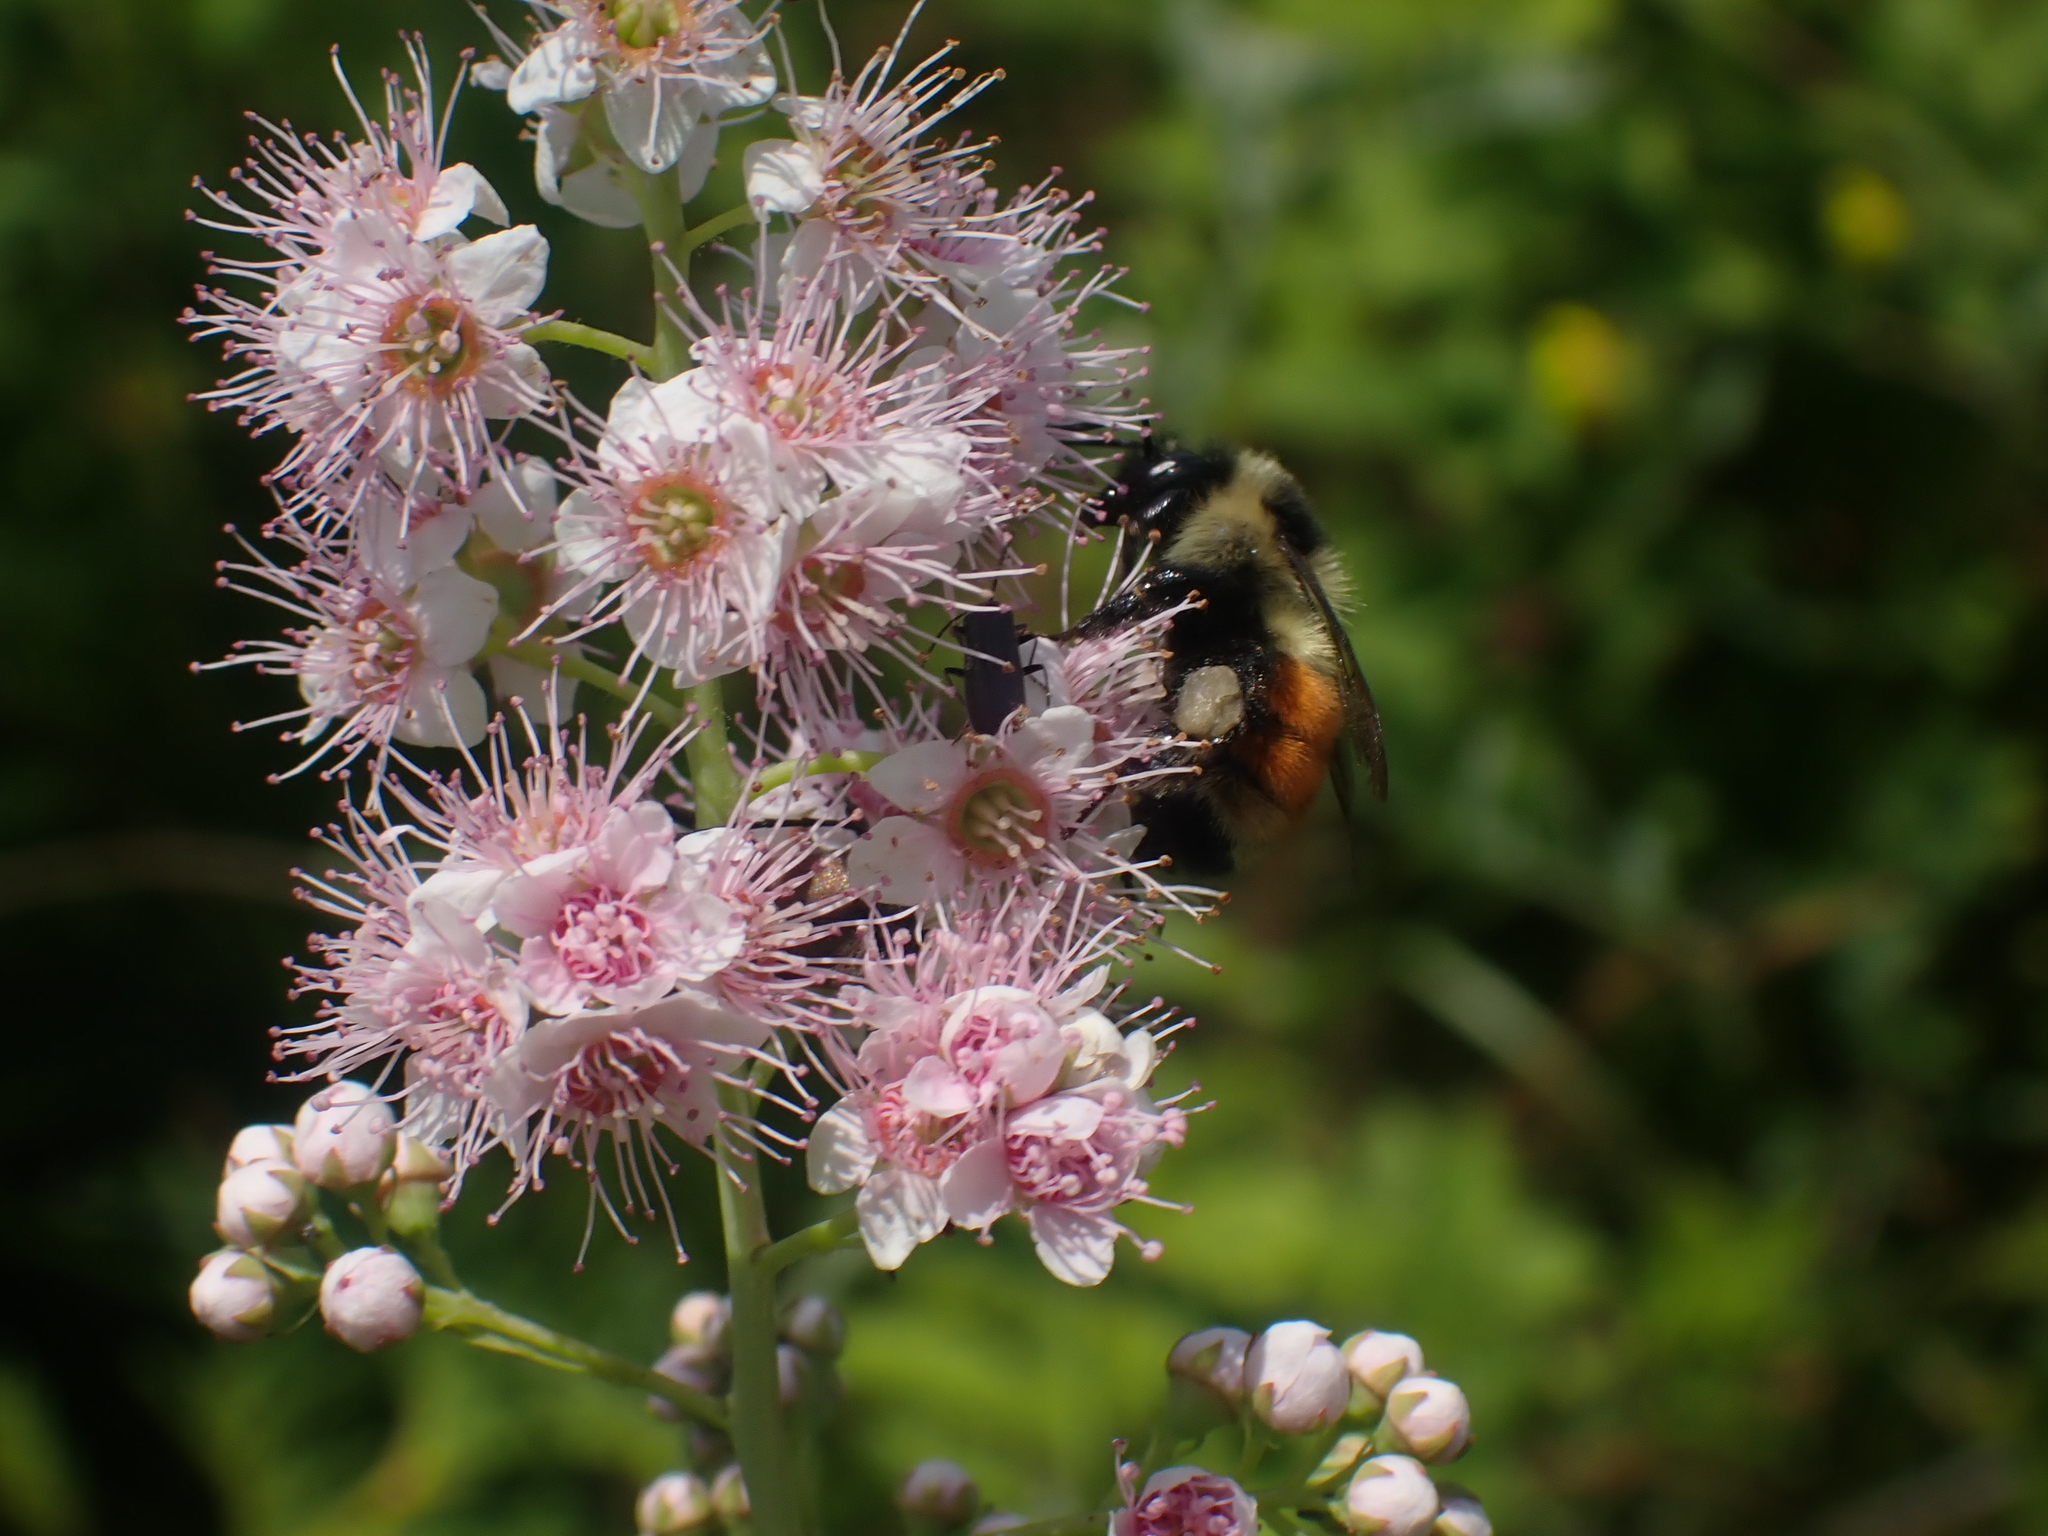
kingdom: Animalia
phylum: Arthropoda
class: Insecta
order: Hymenoptera
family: Apidae
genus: Bombus
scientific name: Bombus ternarius
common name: Tri-colored bumble bee
